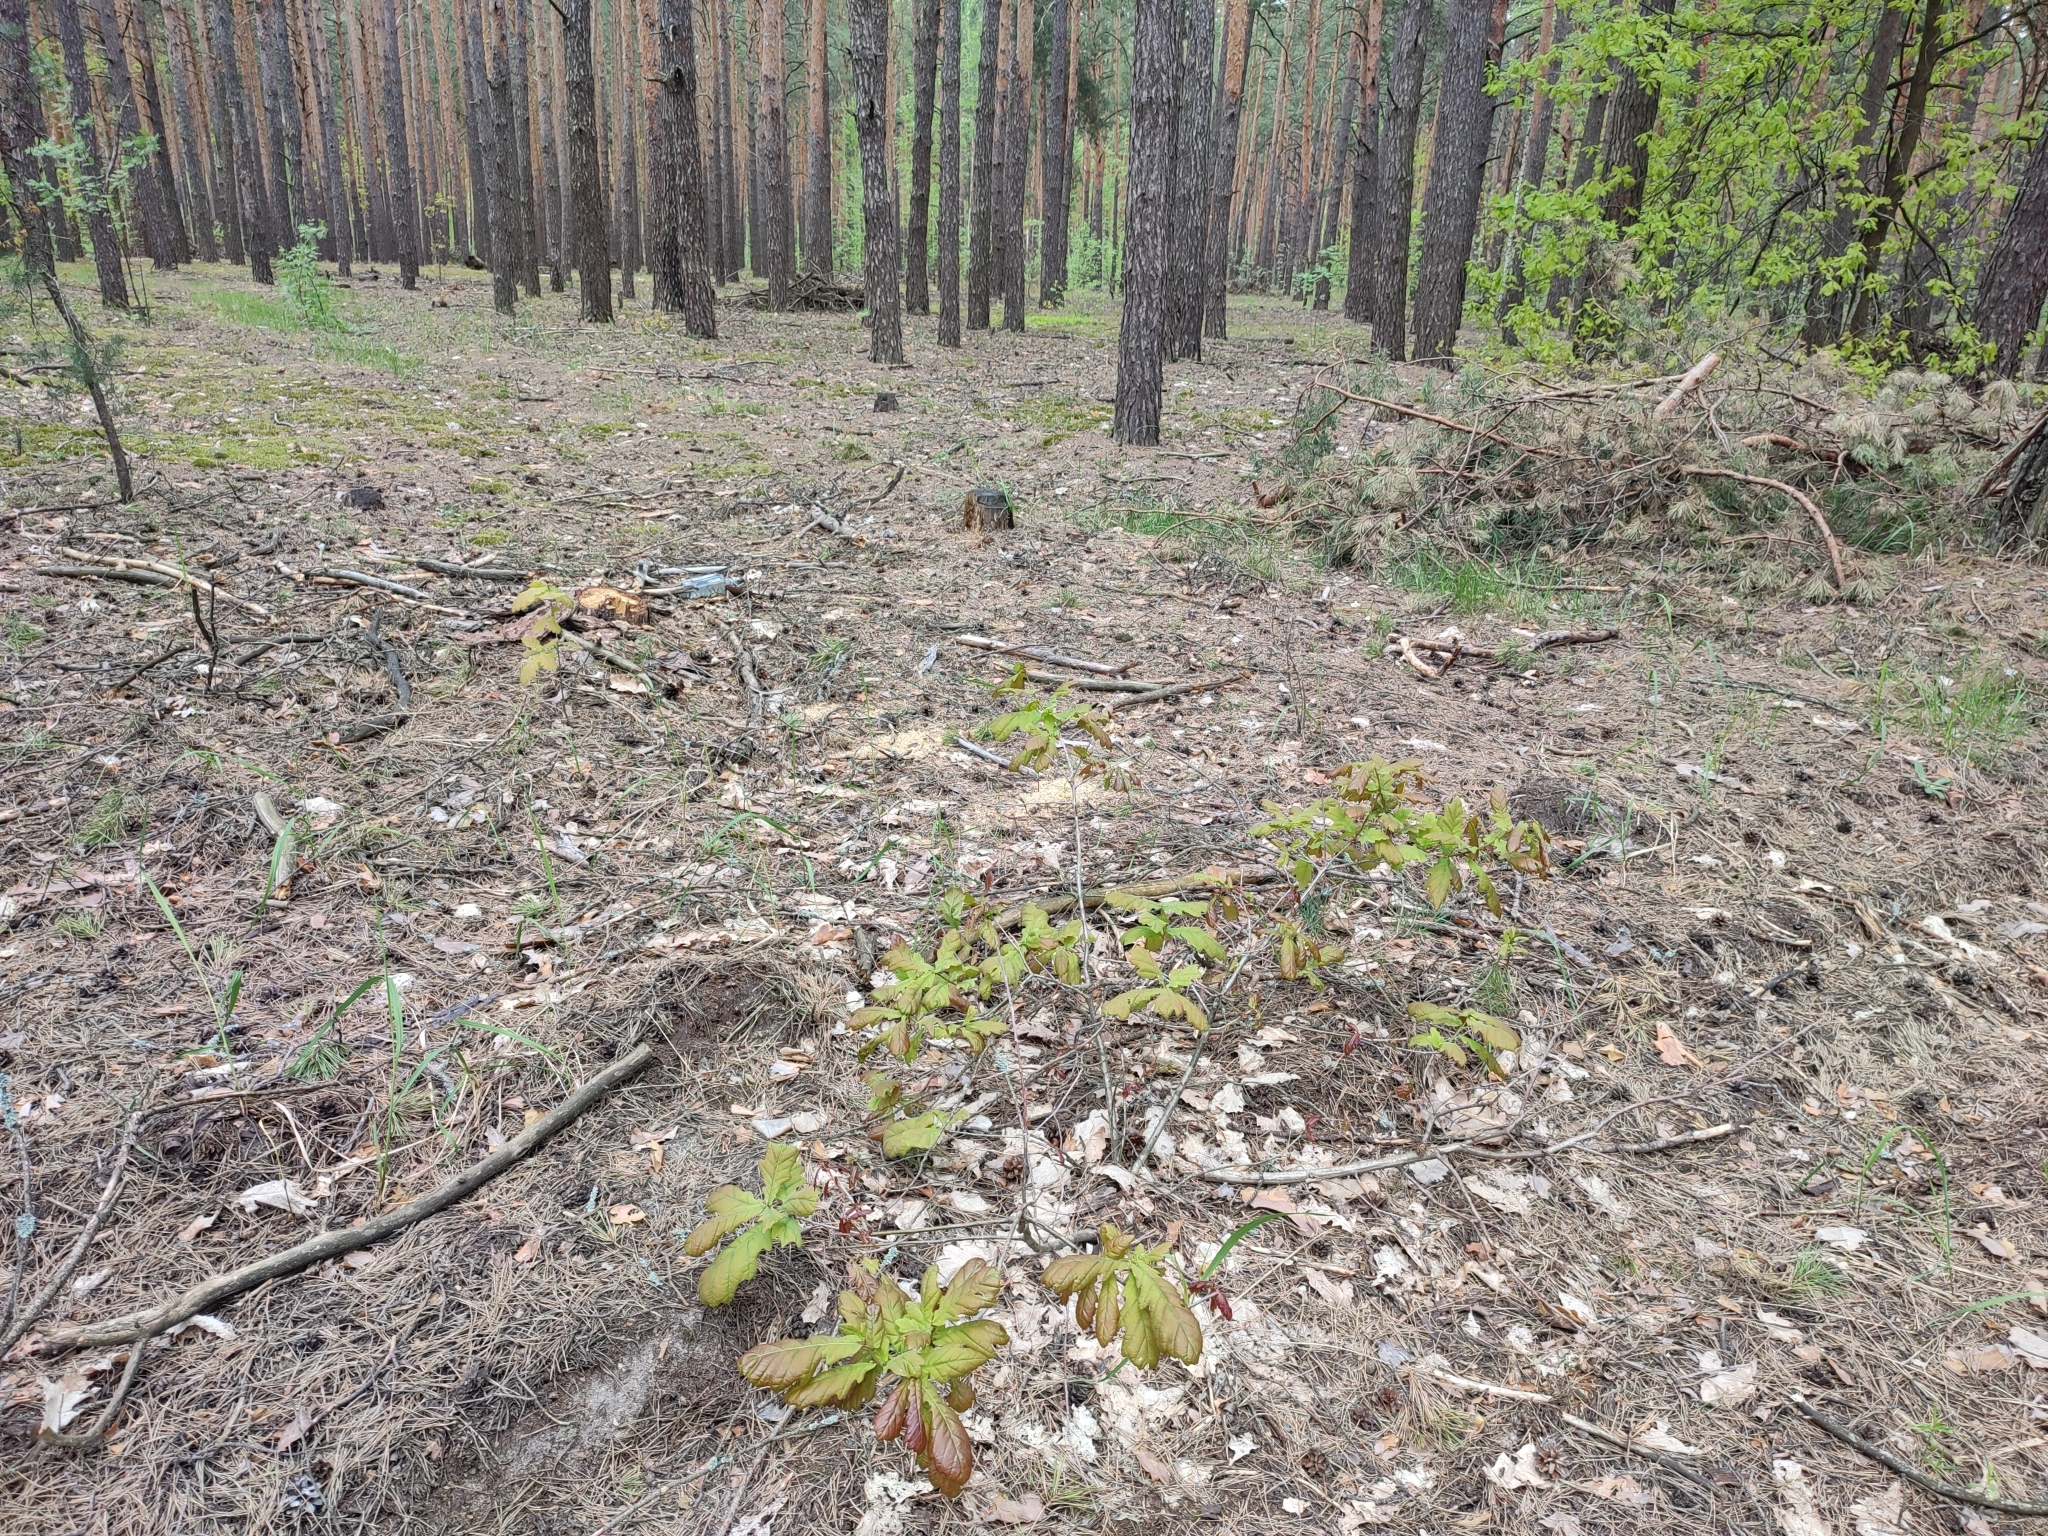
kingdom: Plantae
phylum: Tracheophyta
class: Magnoliopsida
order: Fagales
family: Fagaceae
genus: Quercus
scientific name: Quercus robur
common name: Pedunculate oak
